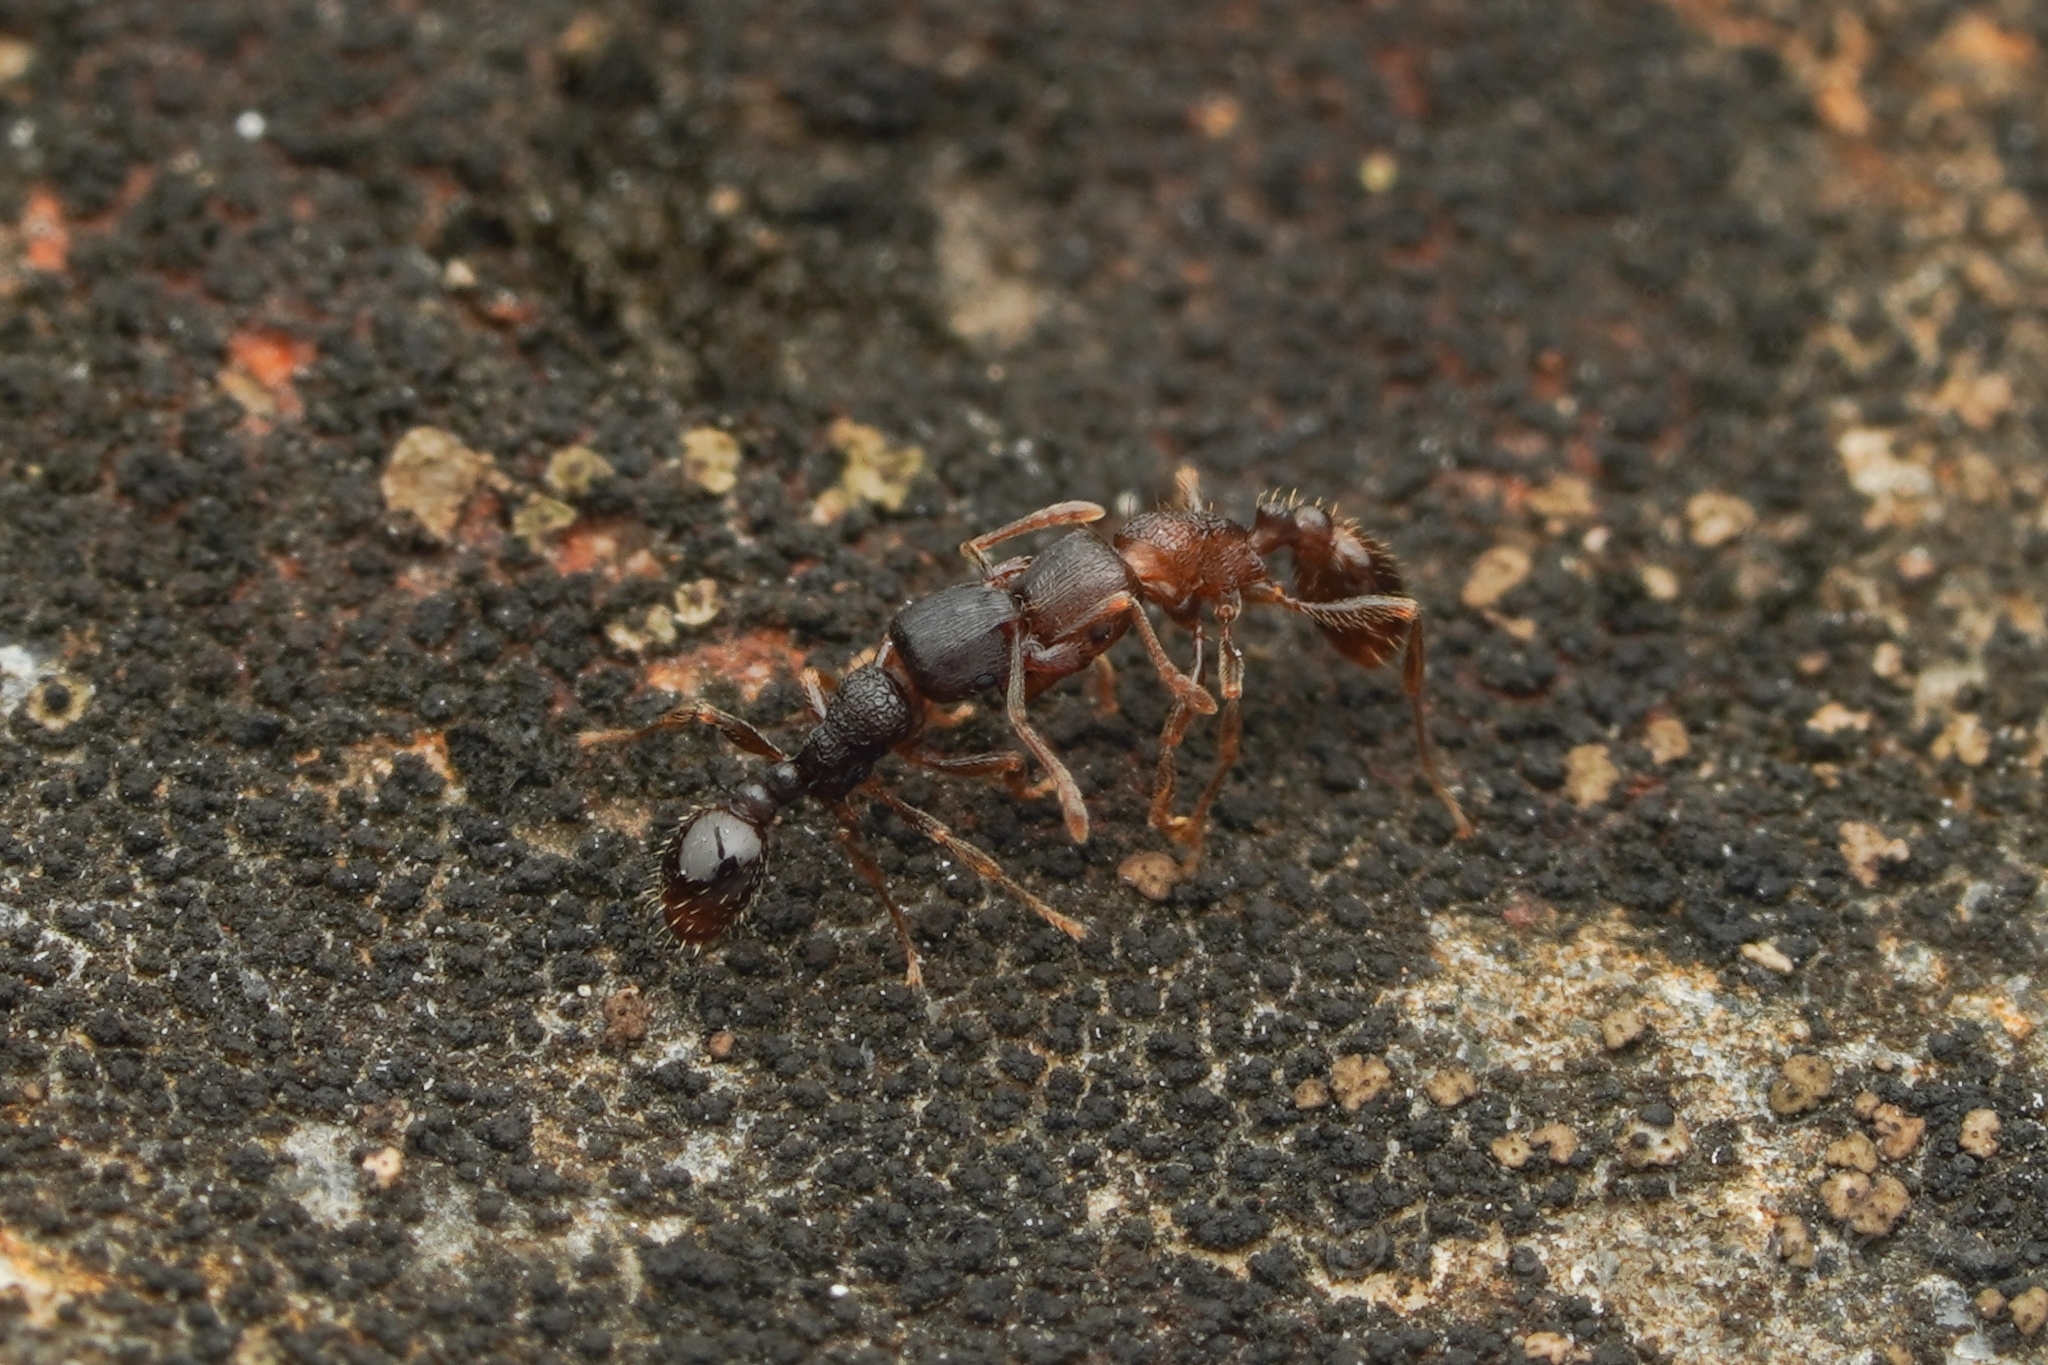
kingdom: Animalia
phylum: Arthropoda
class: Insecta
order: Hymenoptera
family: Formicidae
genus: Tetramorium
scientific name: Tetramorium tsushimae
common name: Ant
